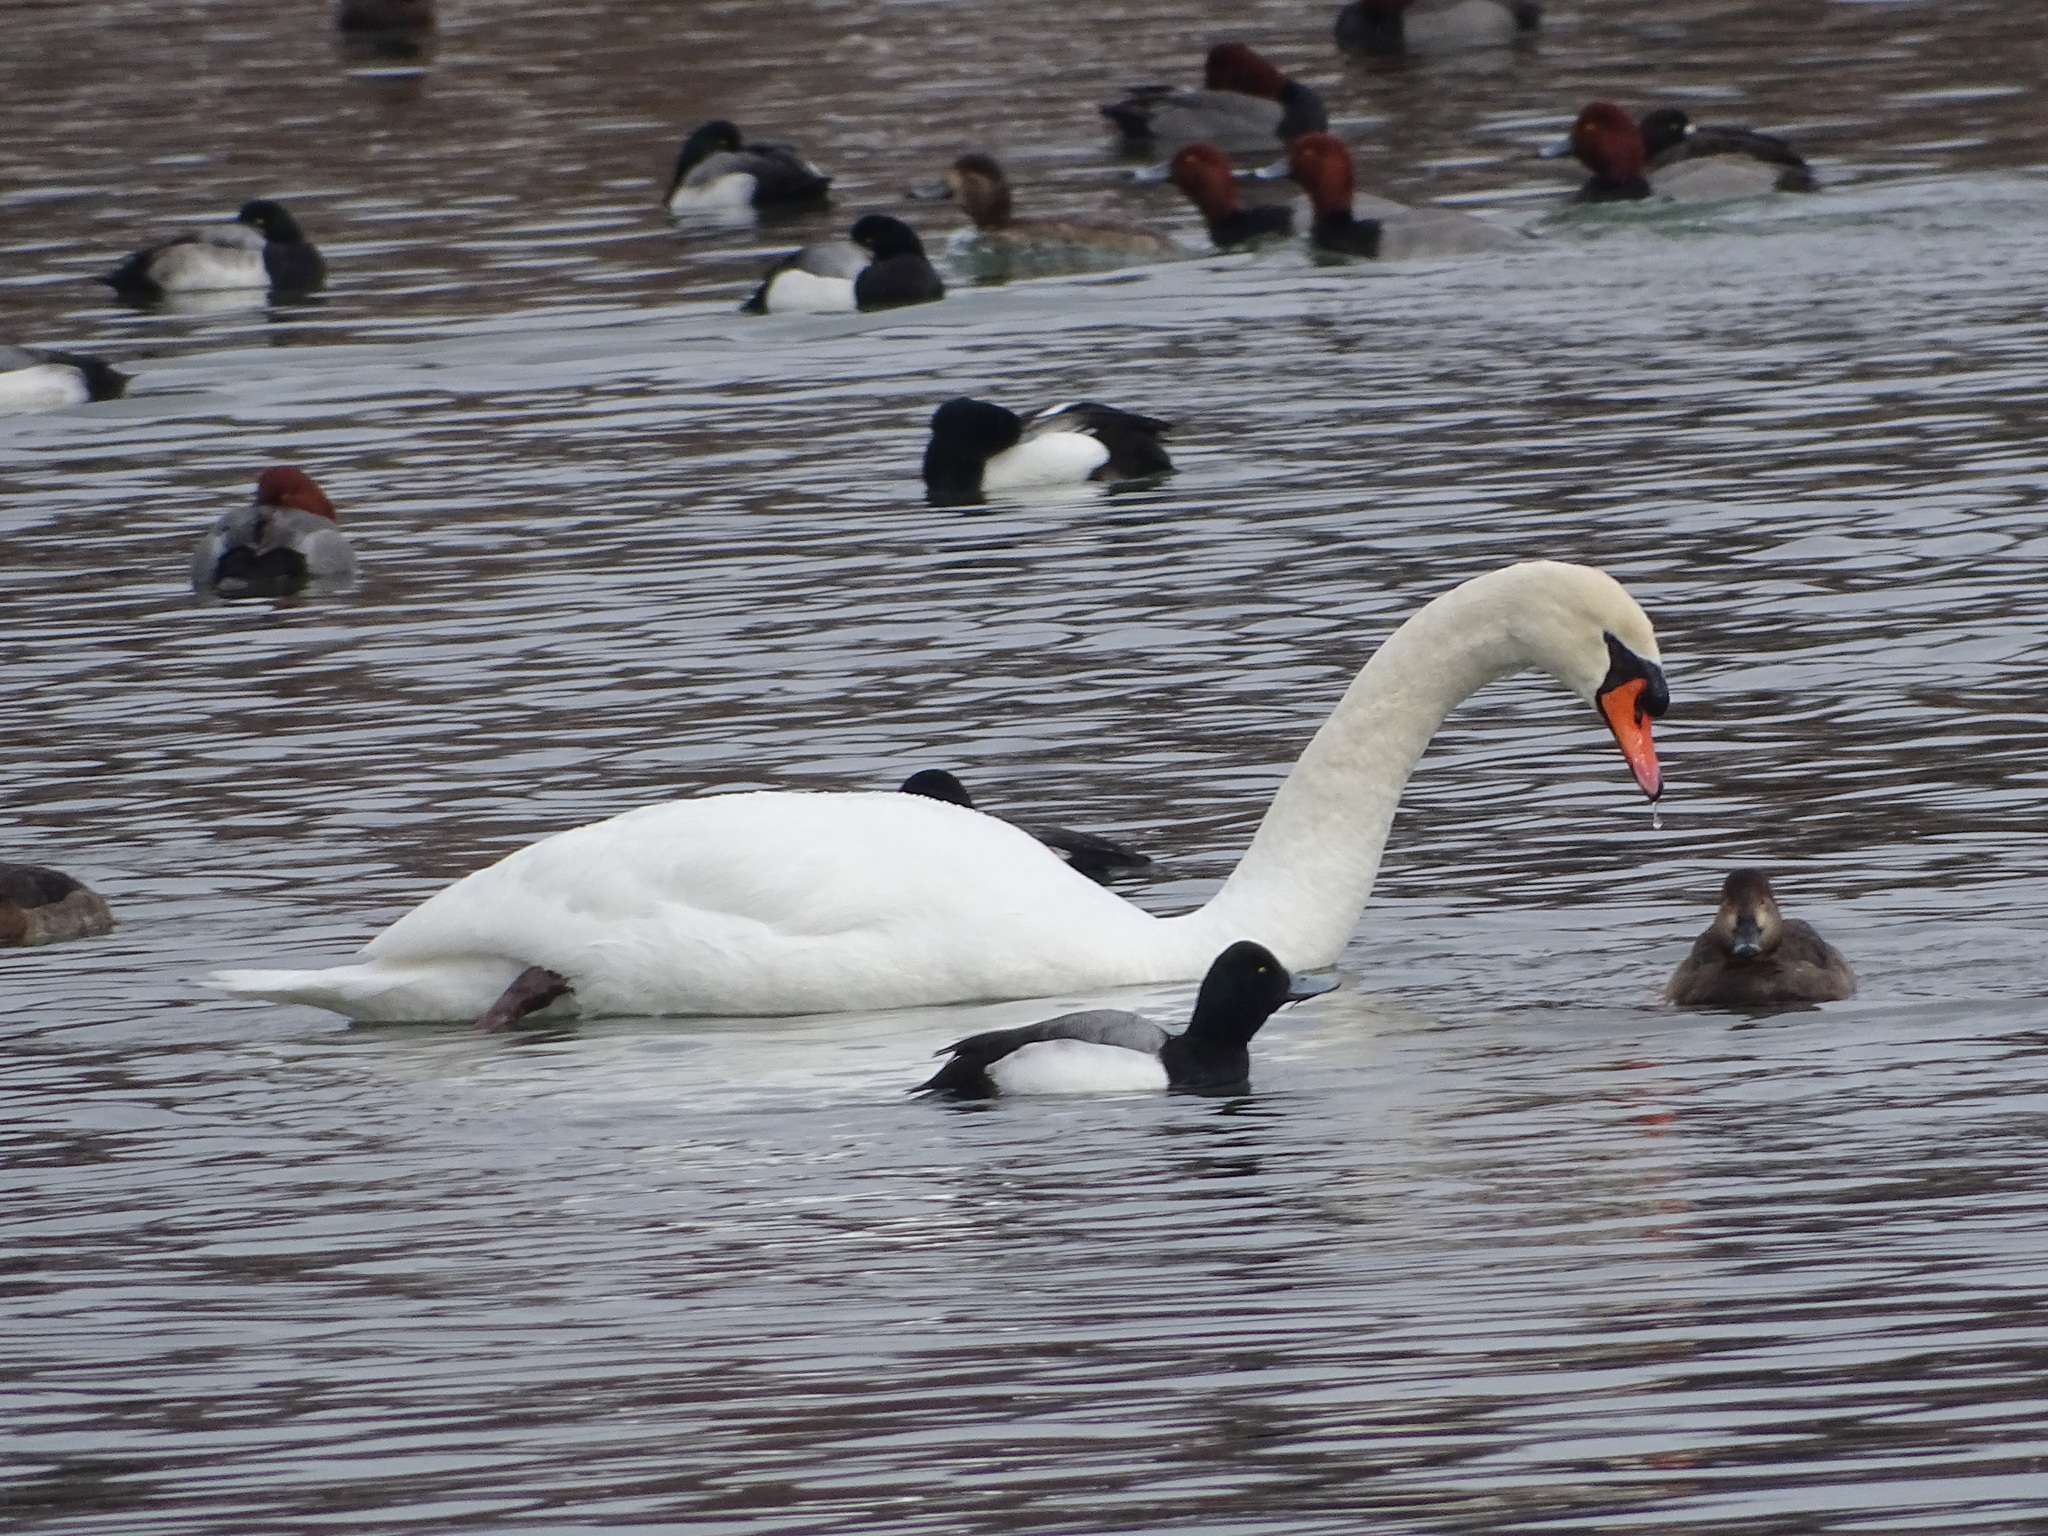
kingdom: Animalia
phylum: Chordata
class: Aves
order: Anseriformes
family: Anatidae
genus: Cygnus
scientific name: Cygnus olor
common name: Mute swan
